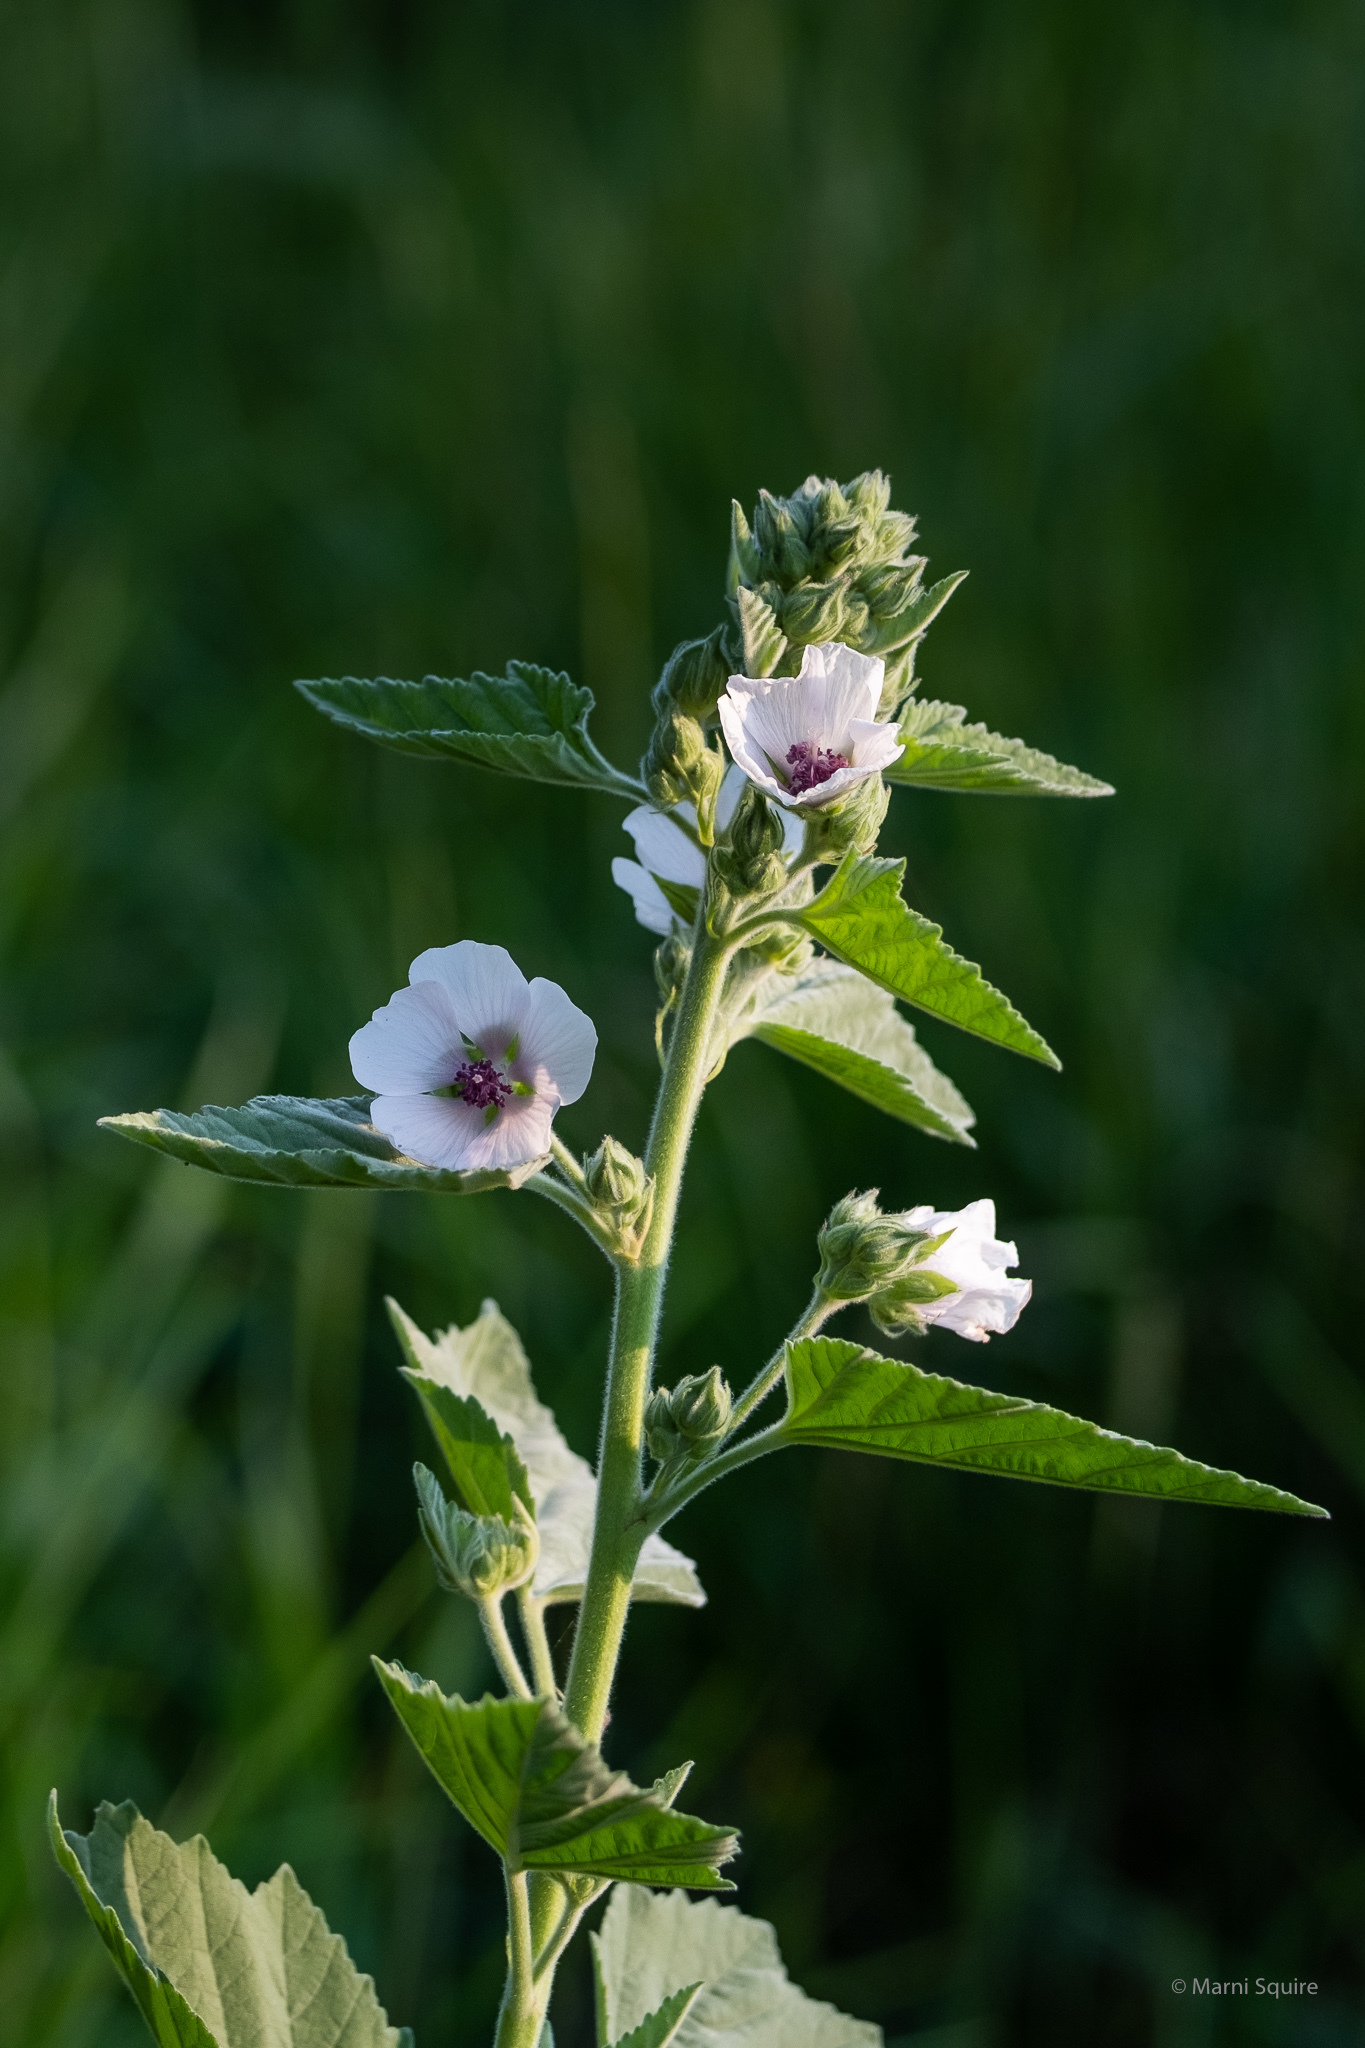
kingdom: Plantae
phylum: Tracheophyta
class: Magnoliopsida
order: Malvales
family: Malvaceae
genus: Althaea
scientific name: Althaea officinalis
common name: Marsh-mallow
